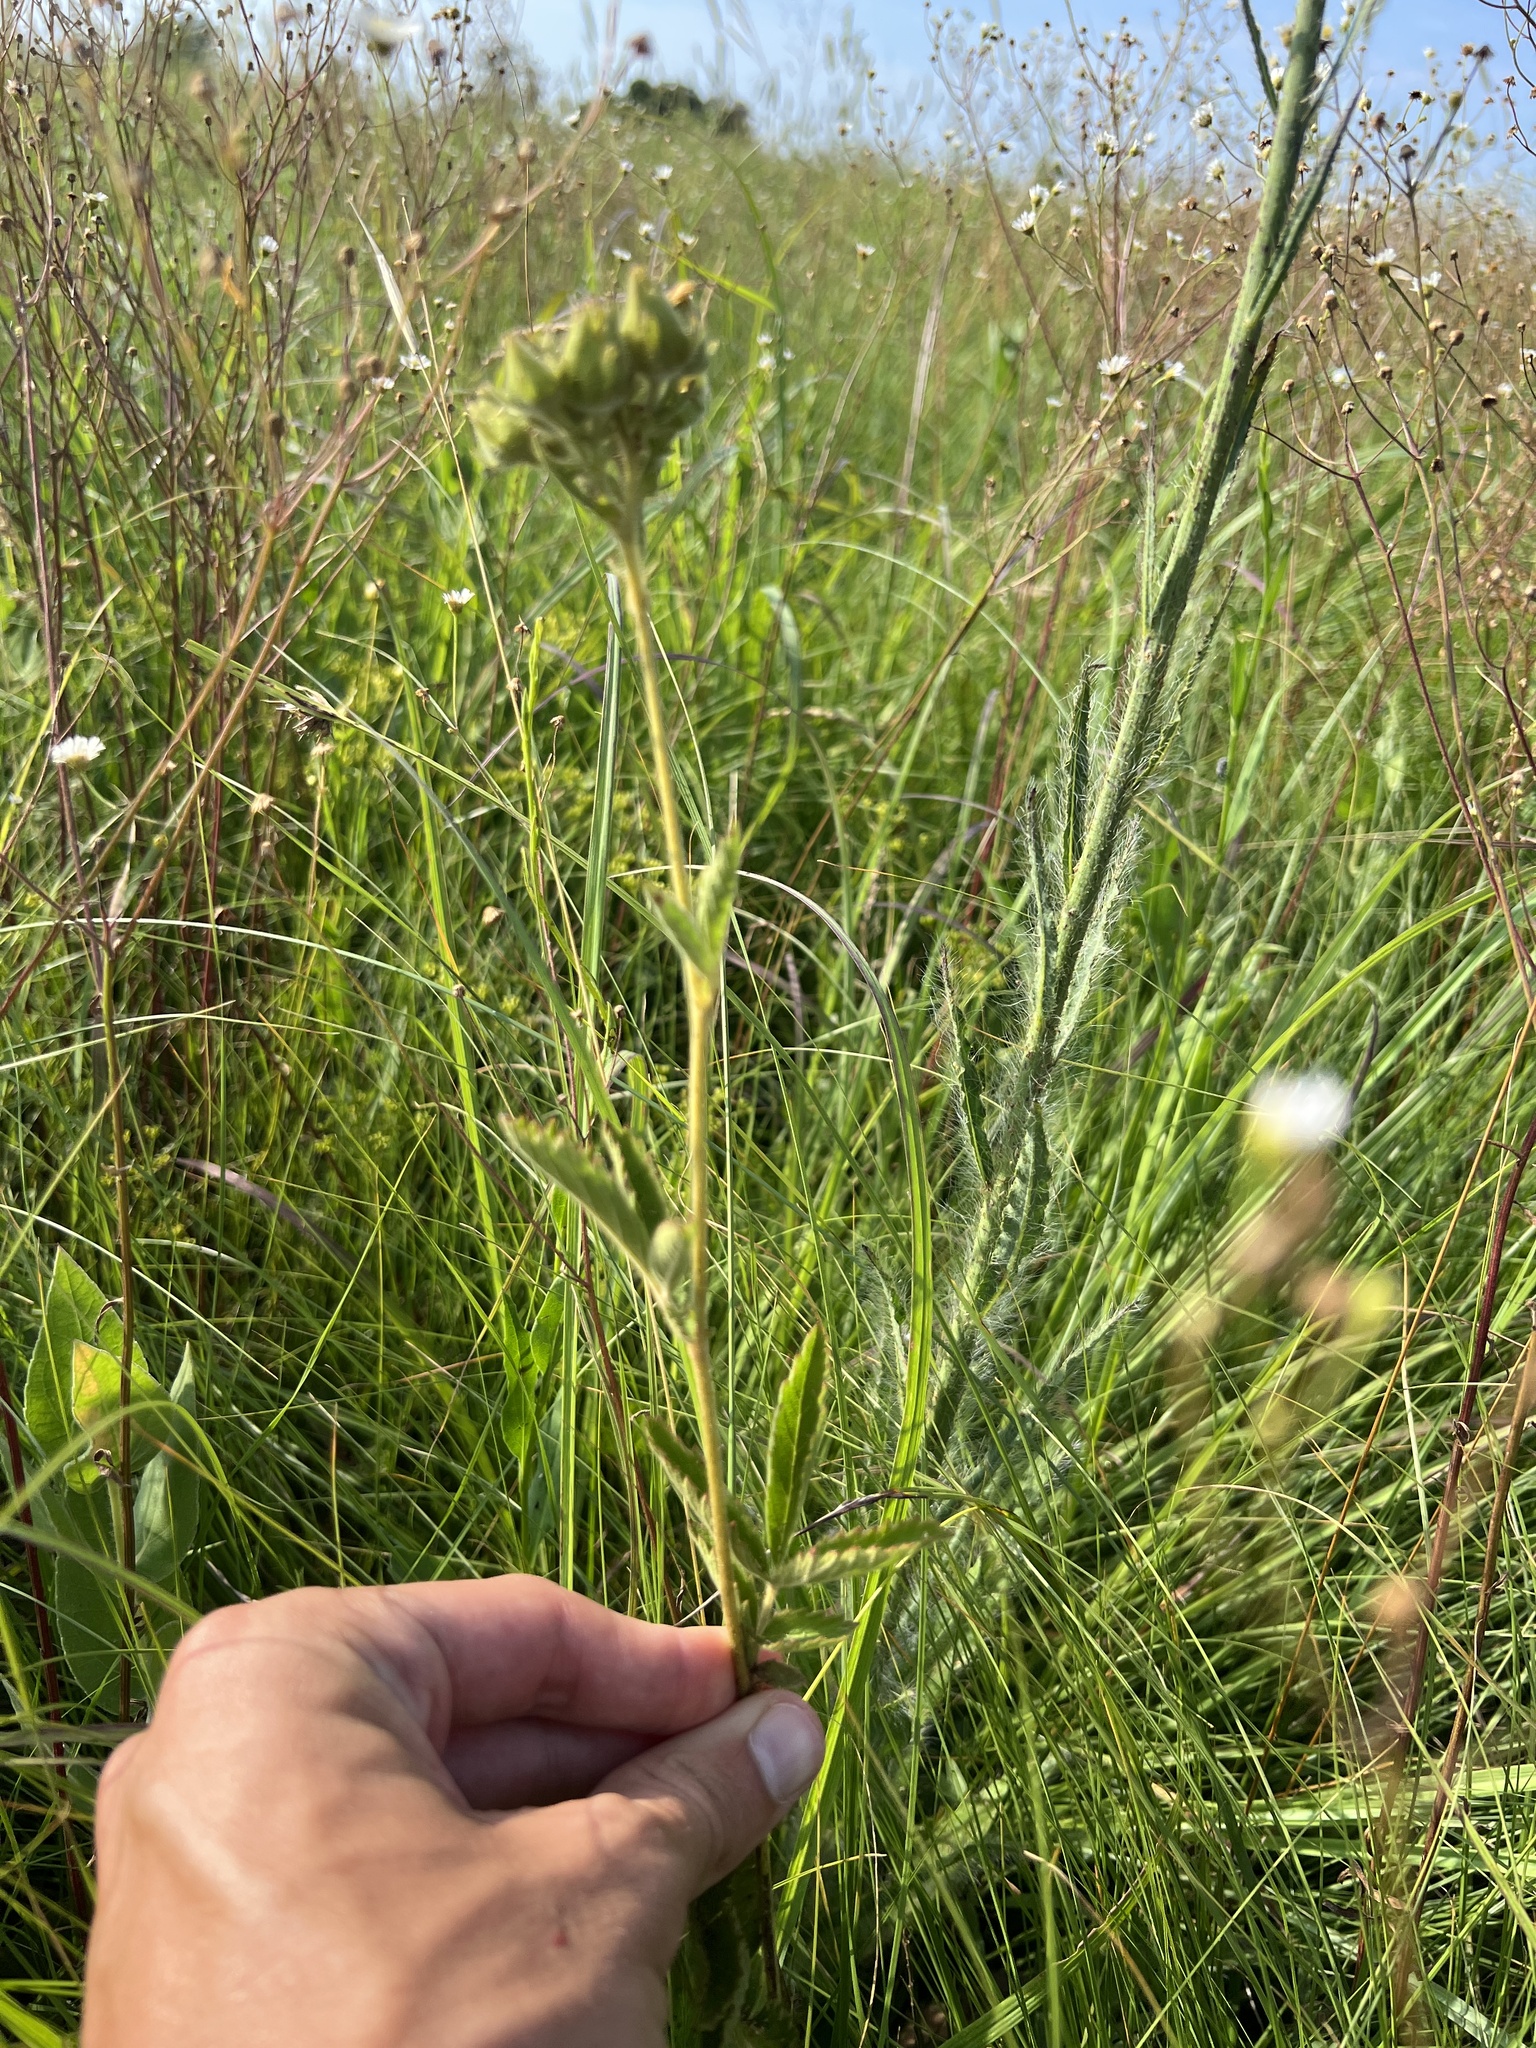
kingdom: Plantae
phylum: Tracheophyta
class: Magnoliopsida
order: Rosales
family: Rosaceae
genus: Drymocallis
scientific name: Drymocallis arguta
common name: Tall cinquefoil
